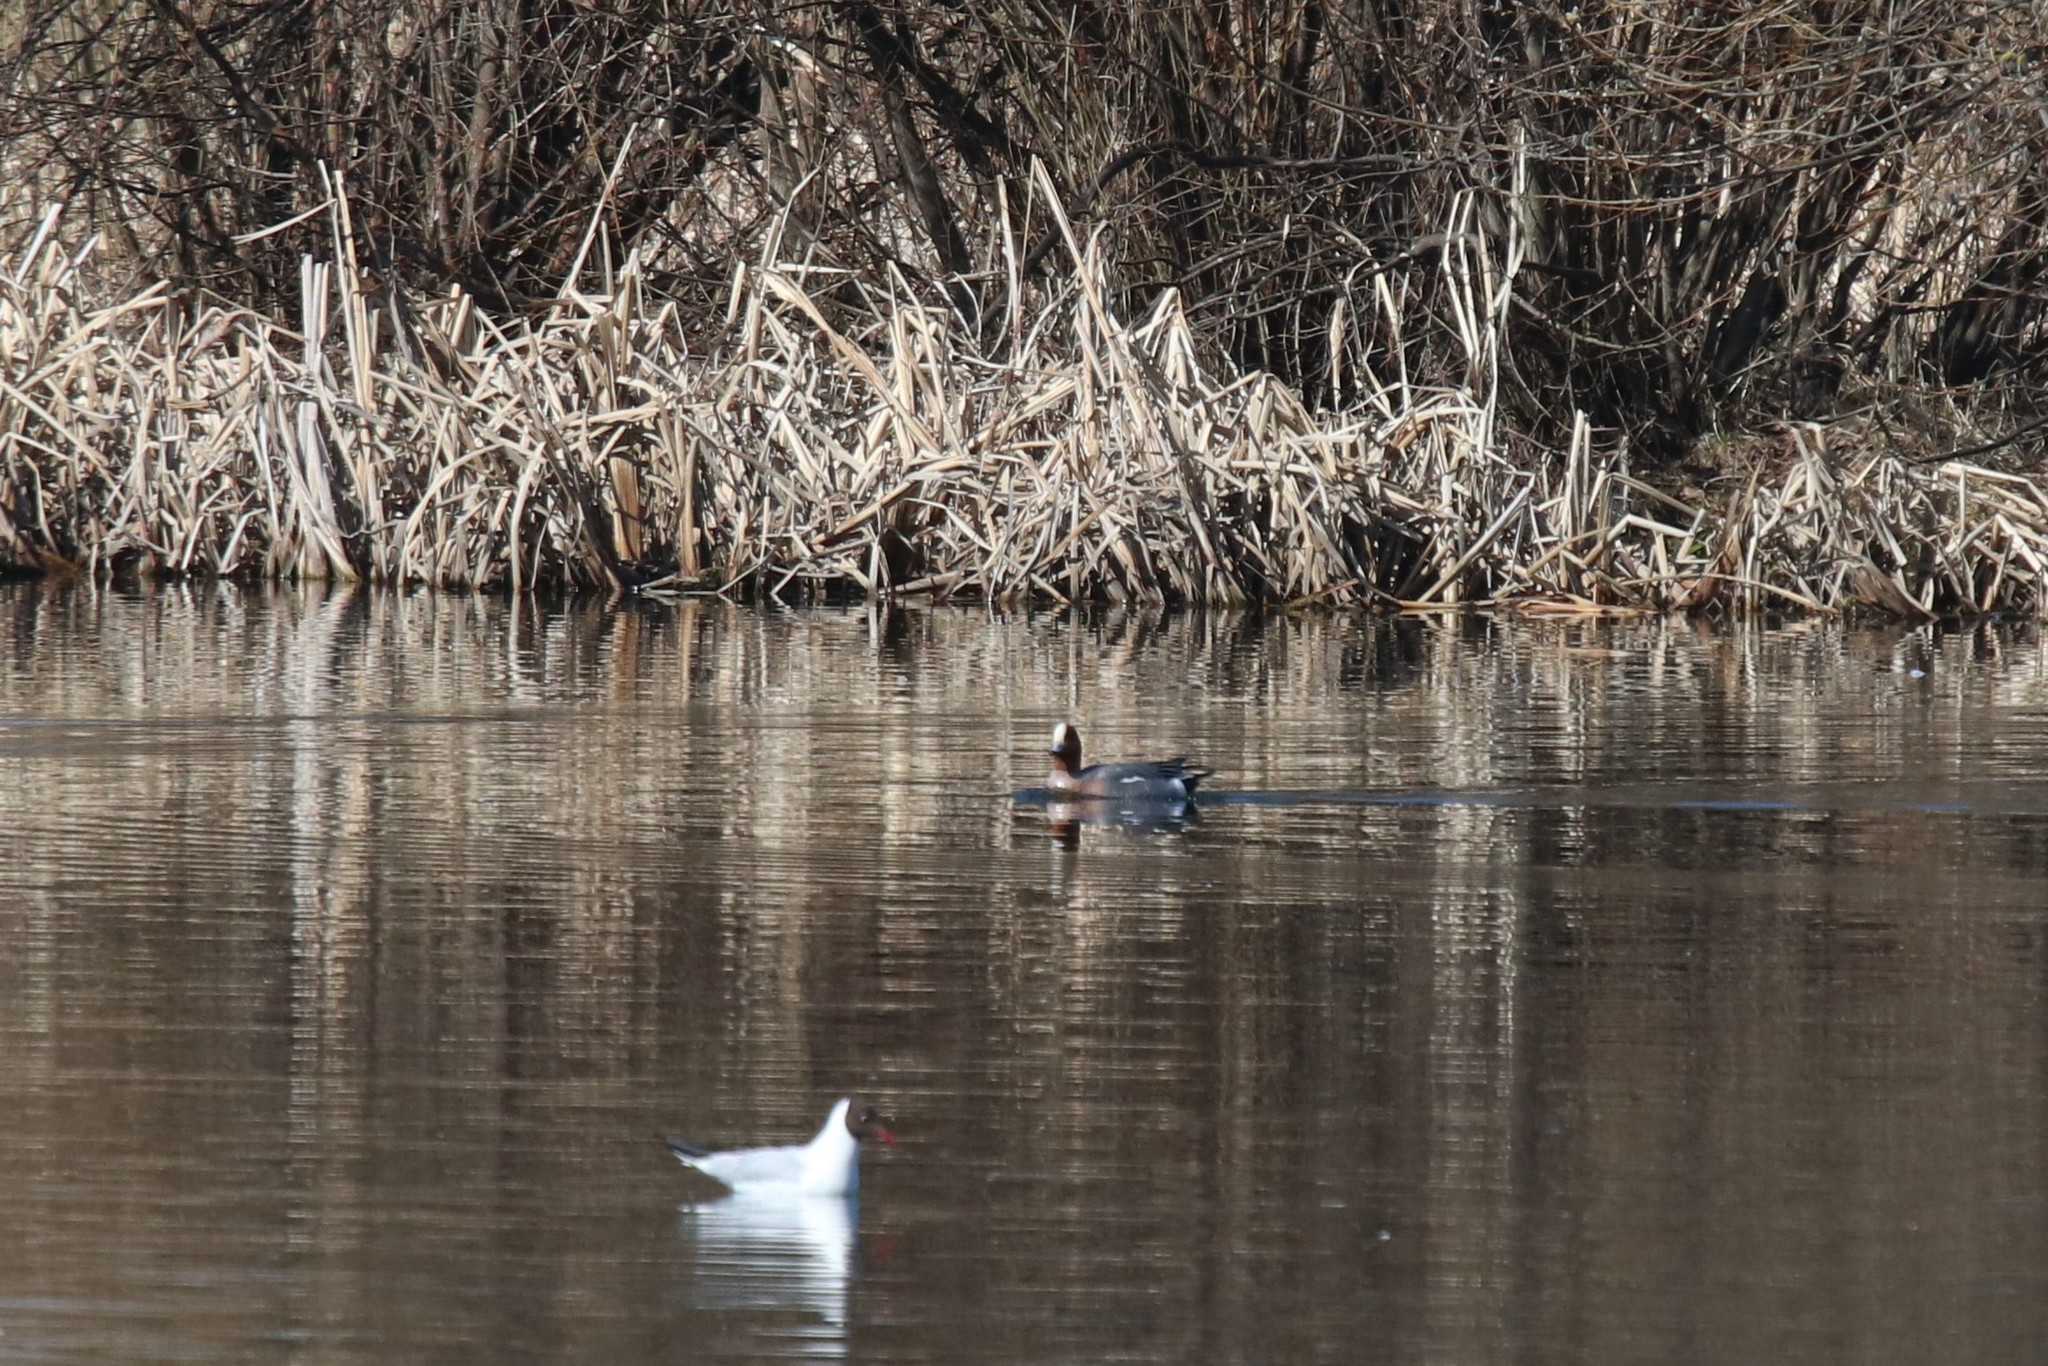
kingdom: Animalia
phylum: Chordata
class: Aves
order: Anseriformes
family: Anatidae
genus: Mareca
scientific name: Mareca penelope
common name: Eurasian wigeon
